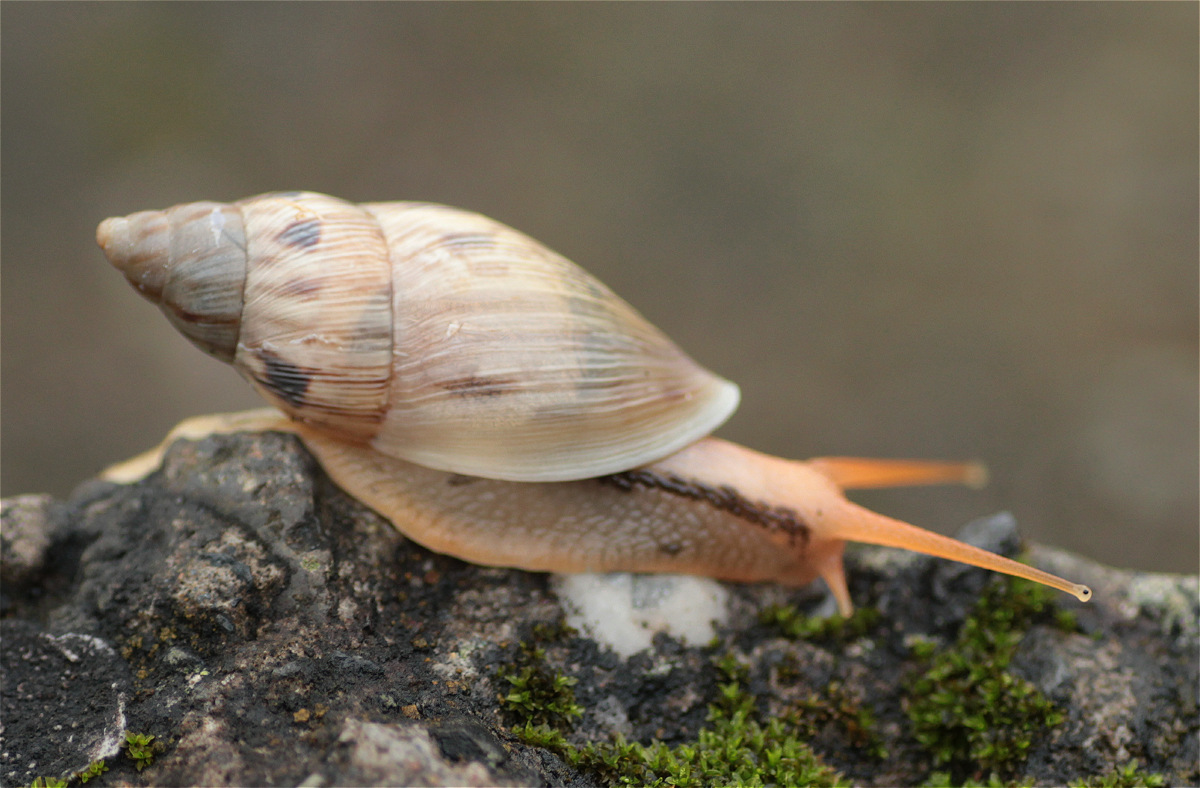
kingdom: Animalia
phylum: Mollusca
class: Gastropoda
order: Stylommatophora
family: Bulimulidae
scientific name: Bulimulidae
